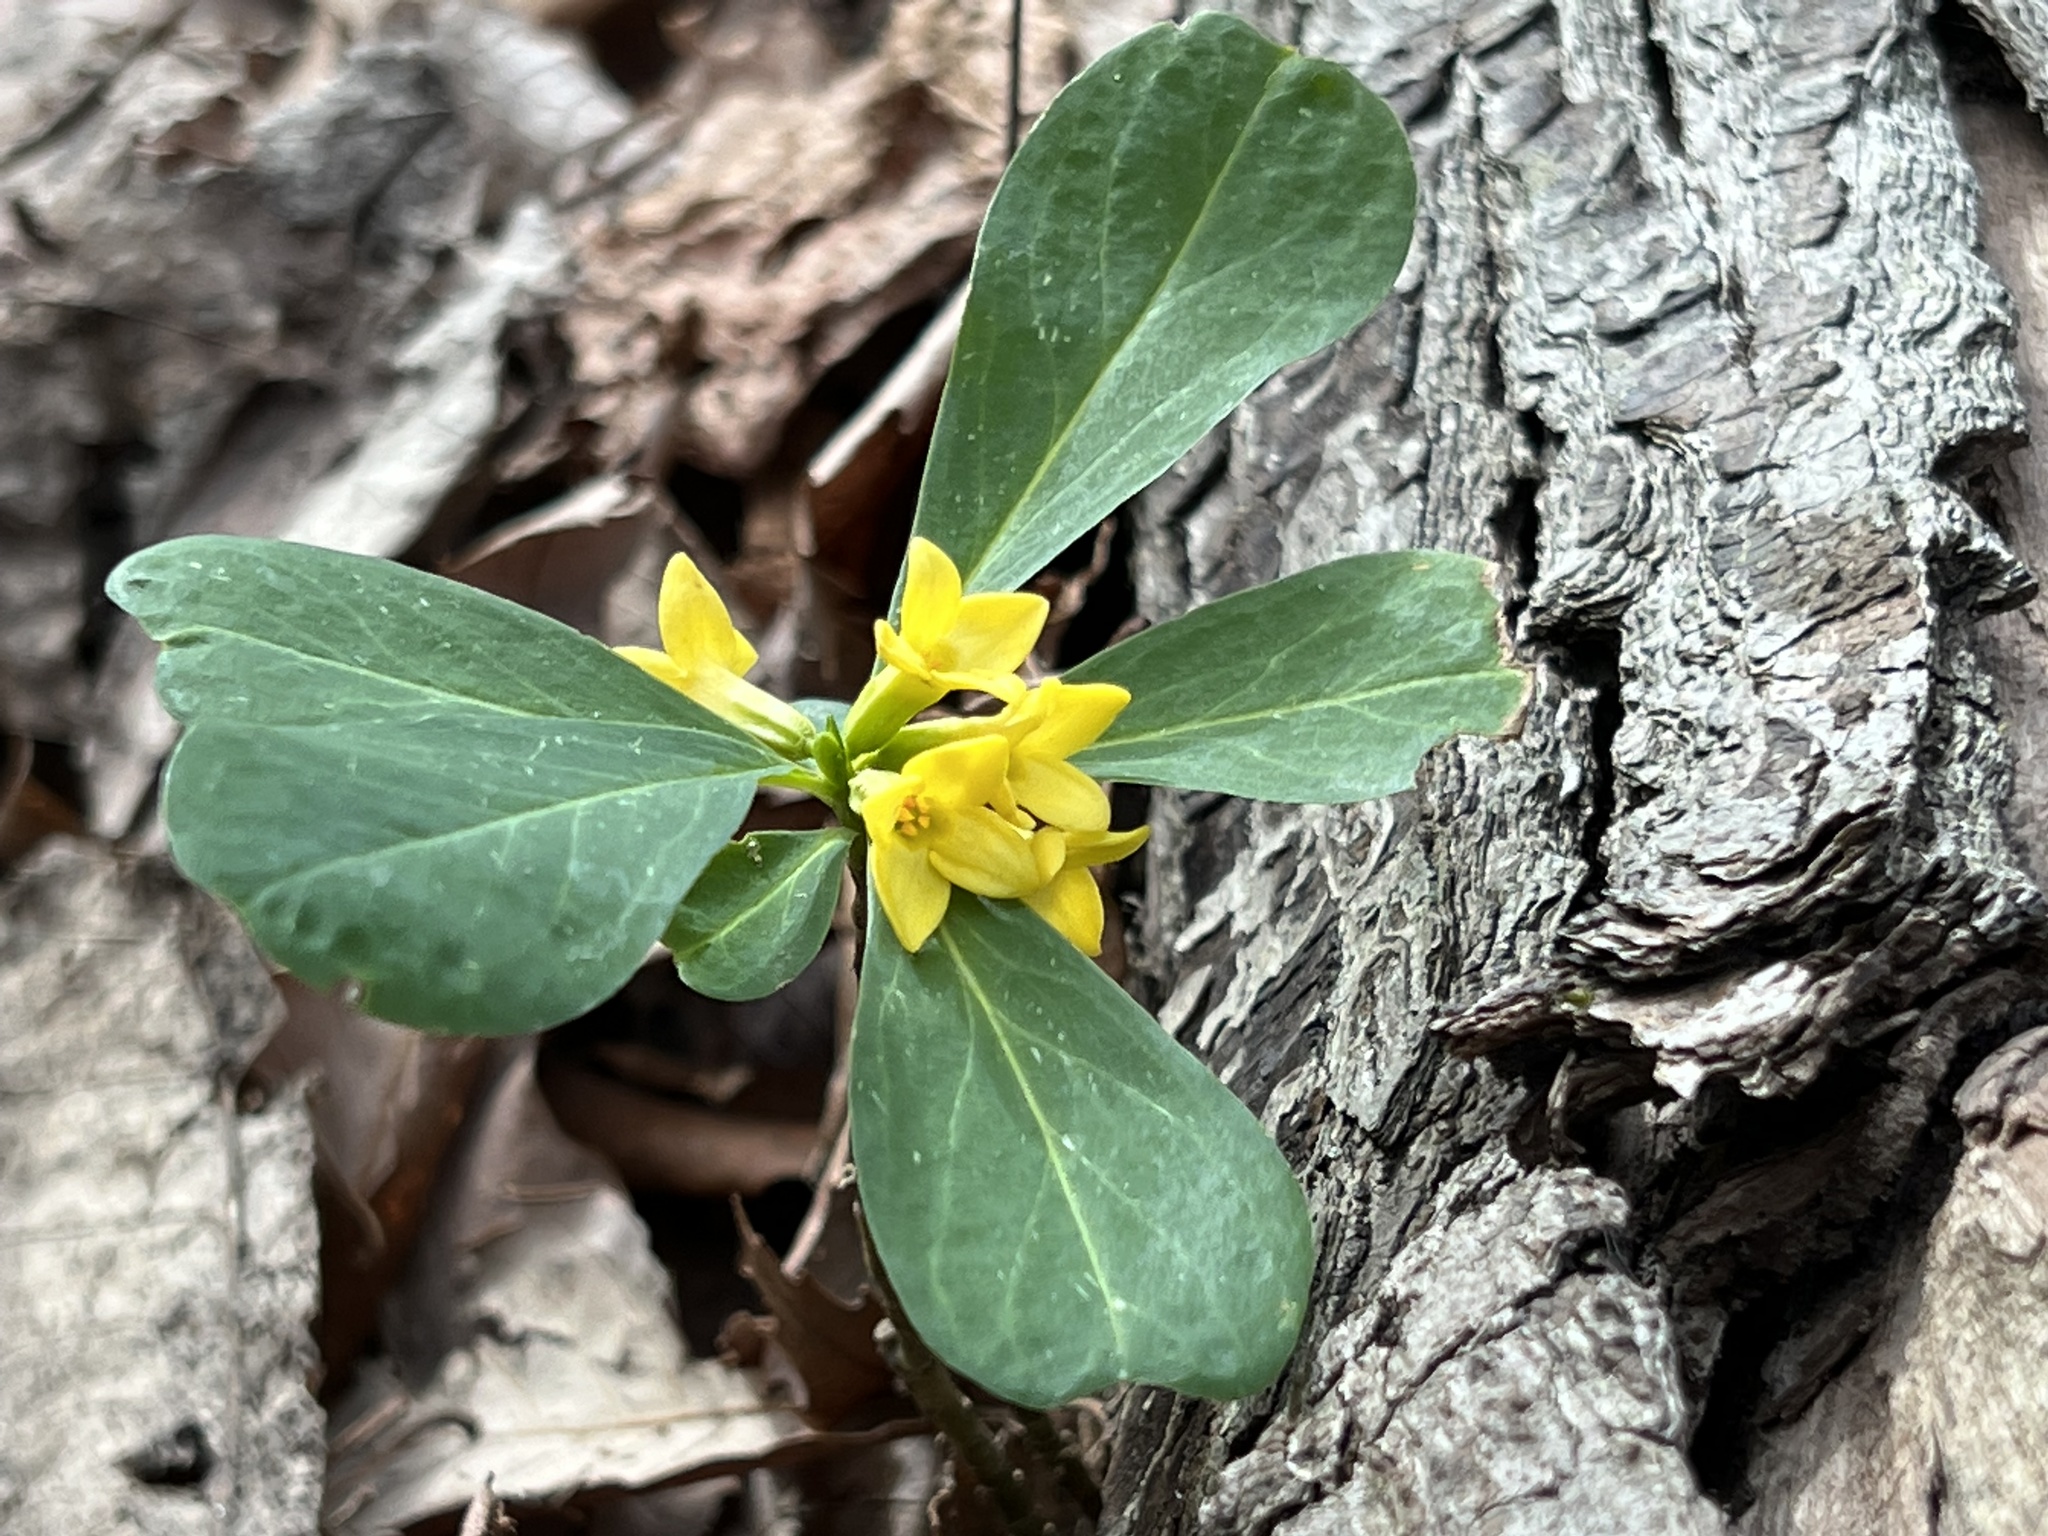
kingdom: Plantae
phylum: Tracheophyta
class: Magnoliopsida
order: Malvales
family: Thymelaeaceae
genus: Daphne
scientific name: Daphne jezoensis
